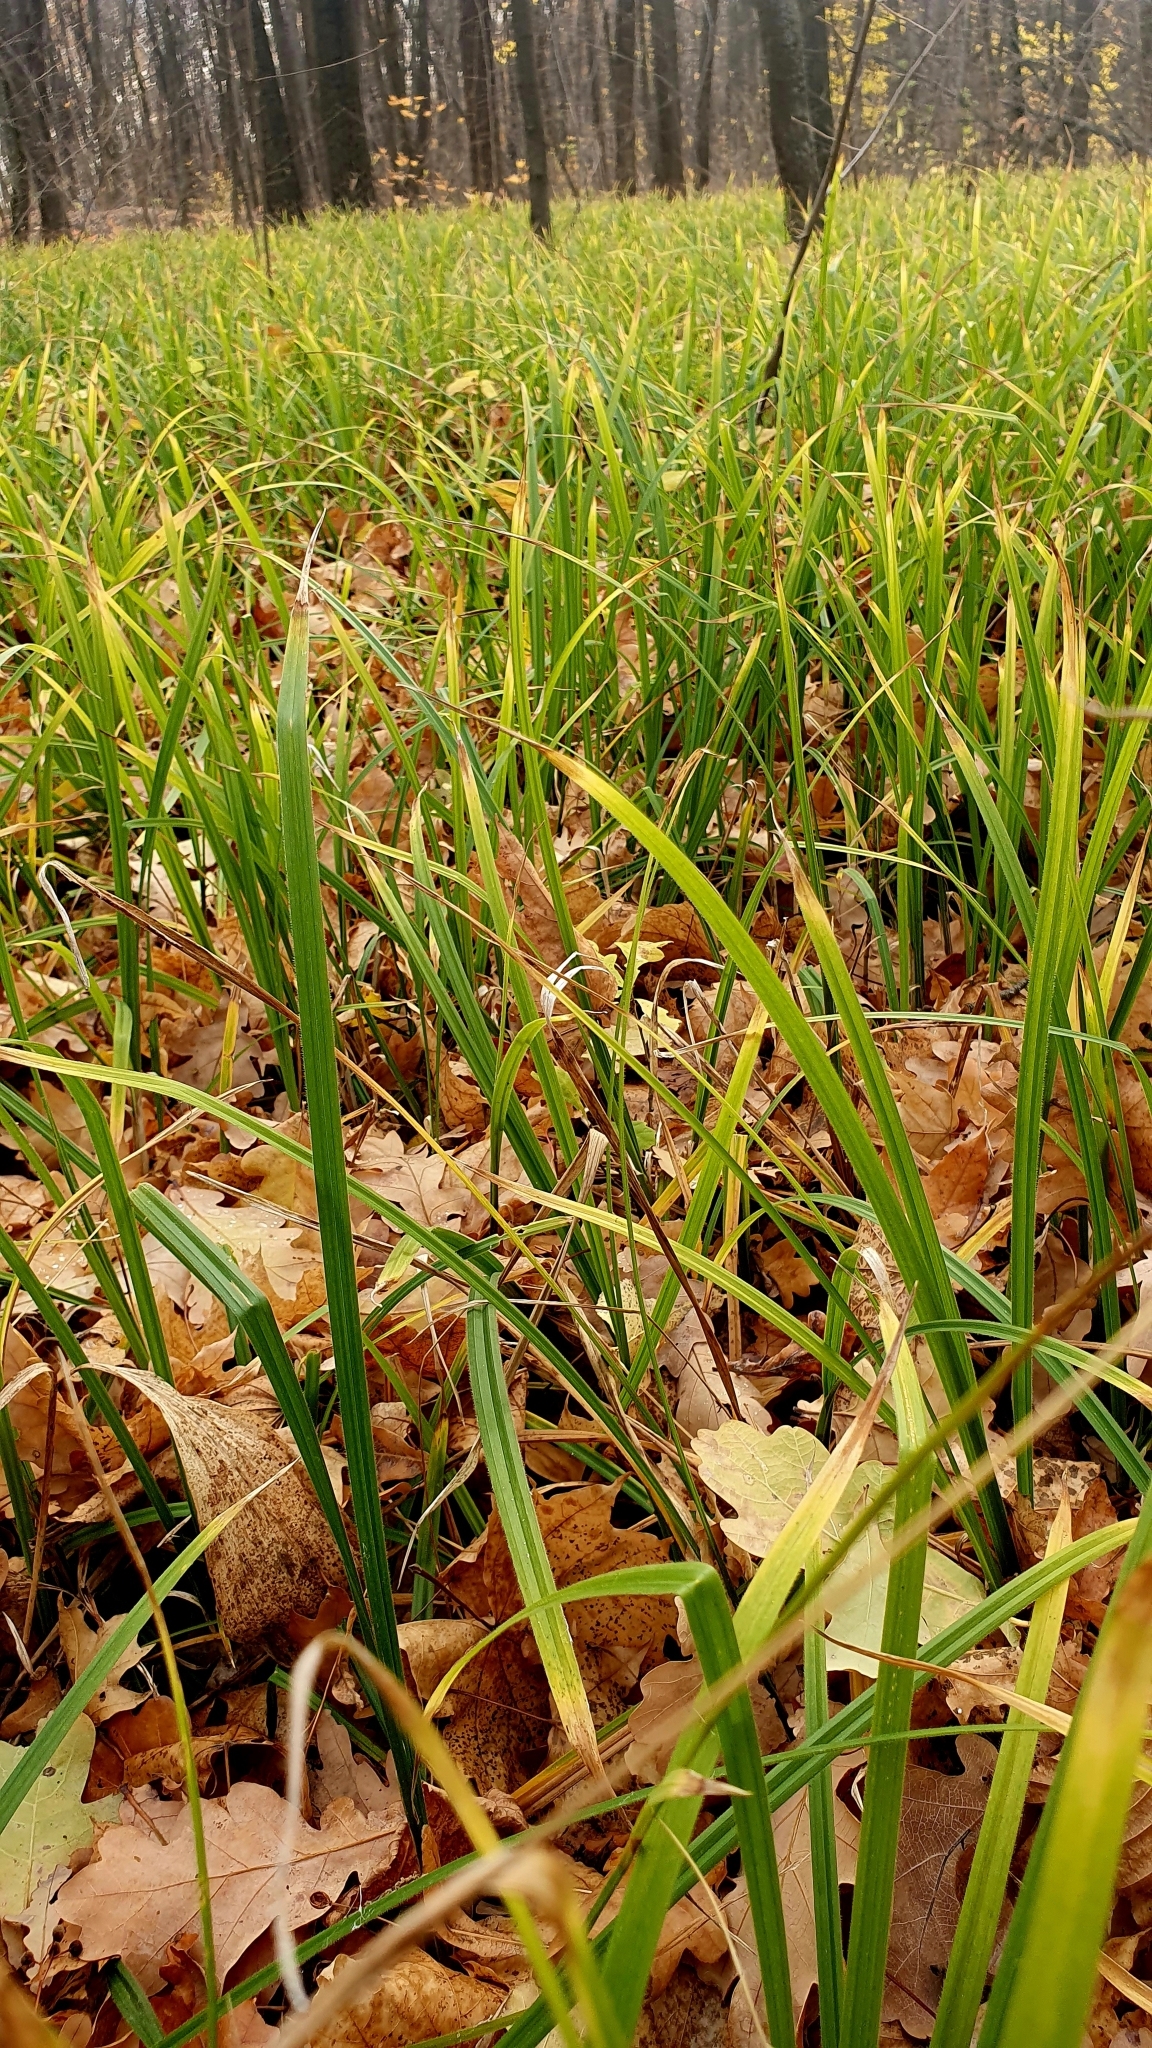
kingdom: Plantae
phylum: Tracheophyta
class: Liliopsida
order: Poales
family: Cyperaceae
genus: Carex
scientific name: Carex pilosa
